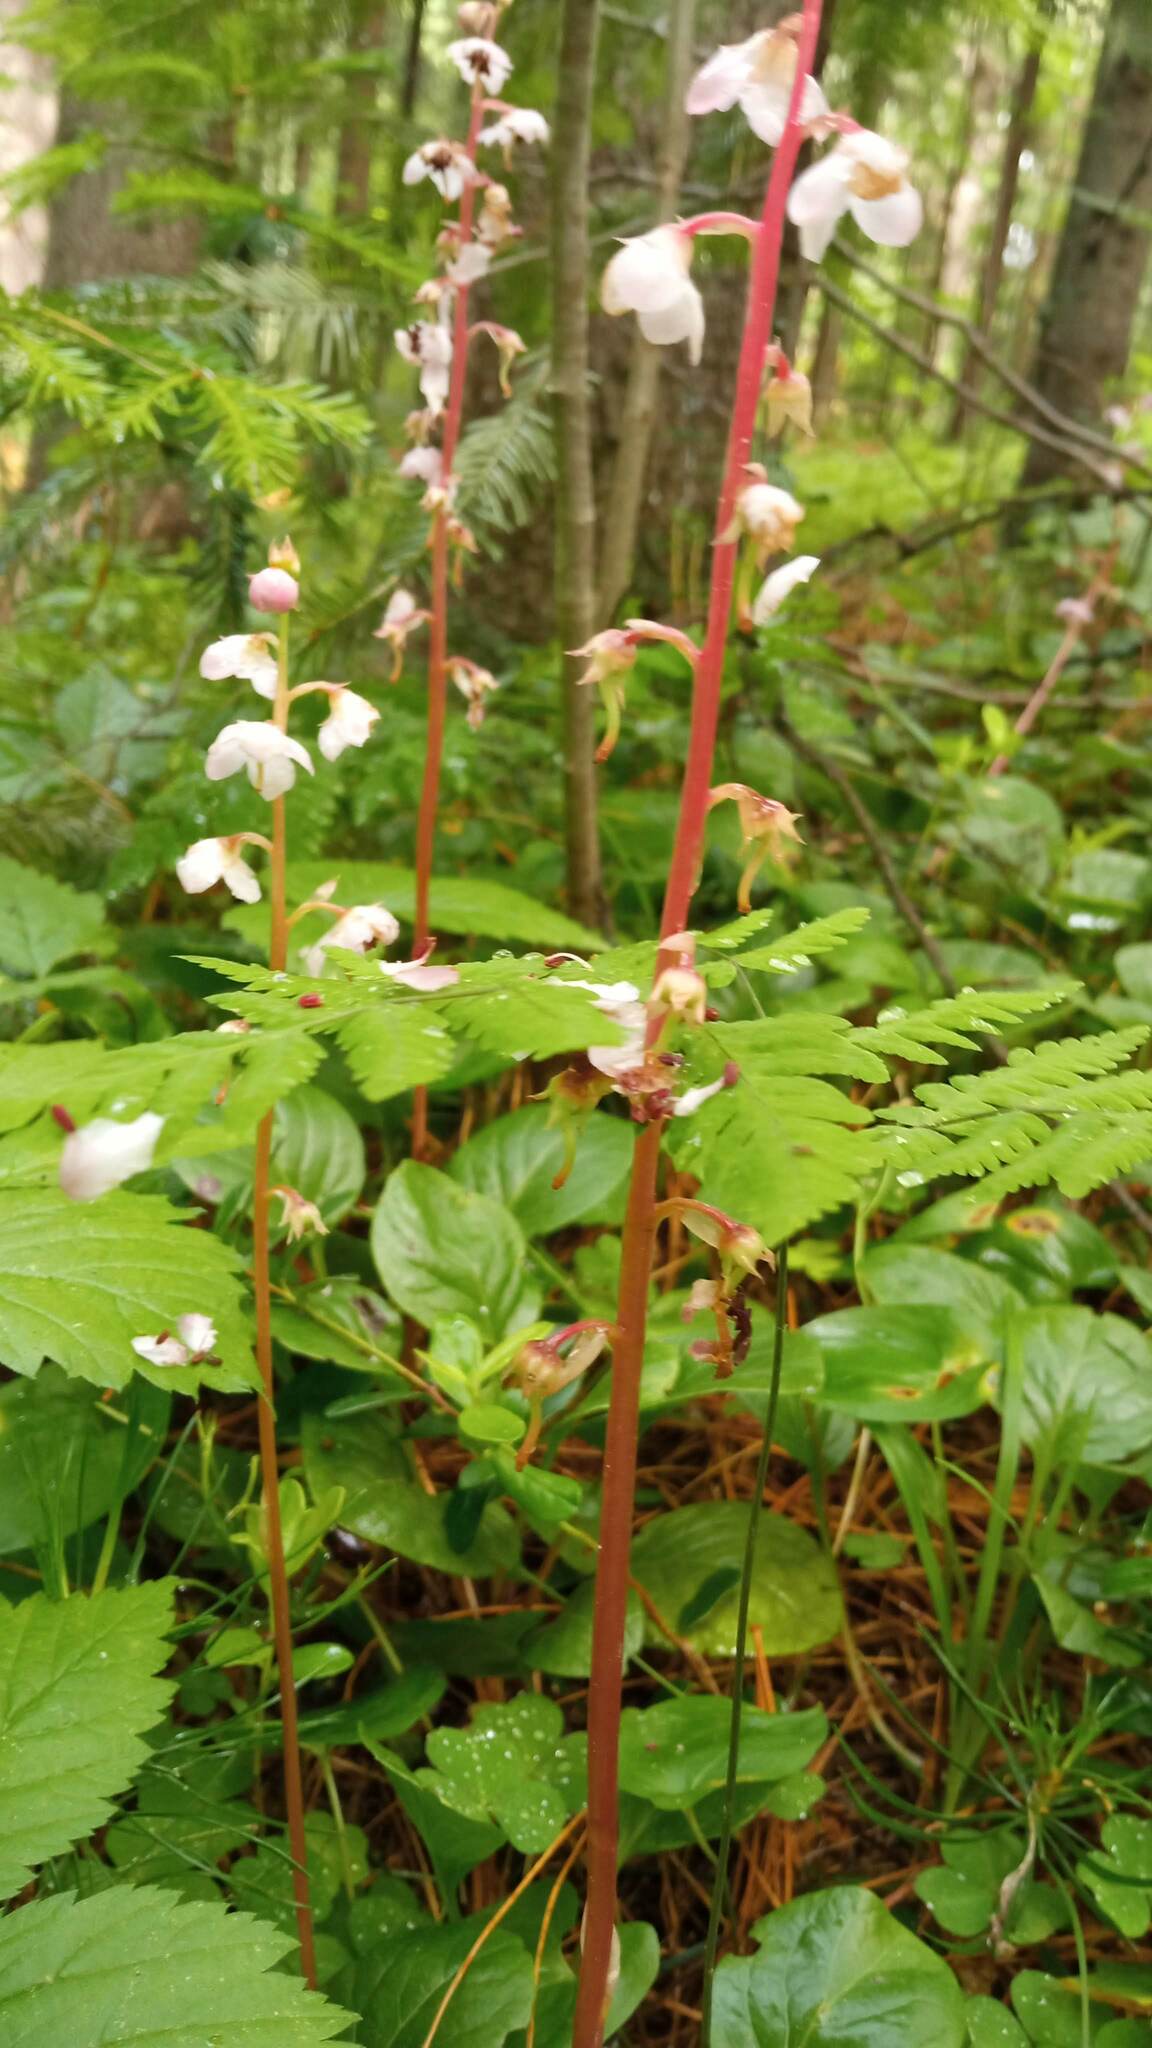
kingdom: Plantae
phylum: Tracheophyta
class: Magnoliopsida
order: Ericales
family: Ericaceae
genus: Pyrola
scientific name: Pyrola rotundifolia
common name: Round-leaved wintergreen
